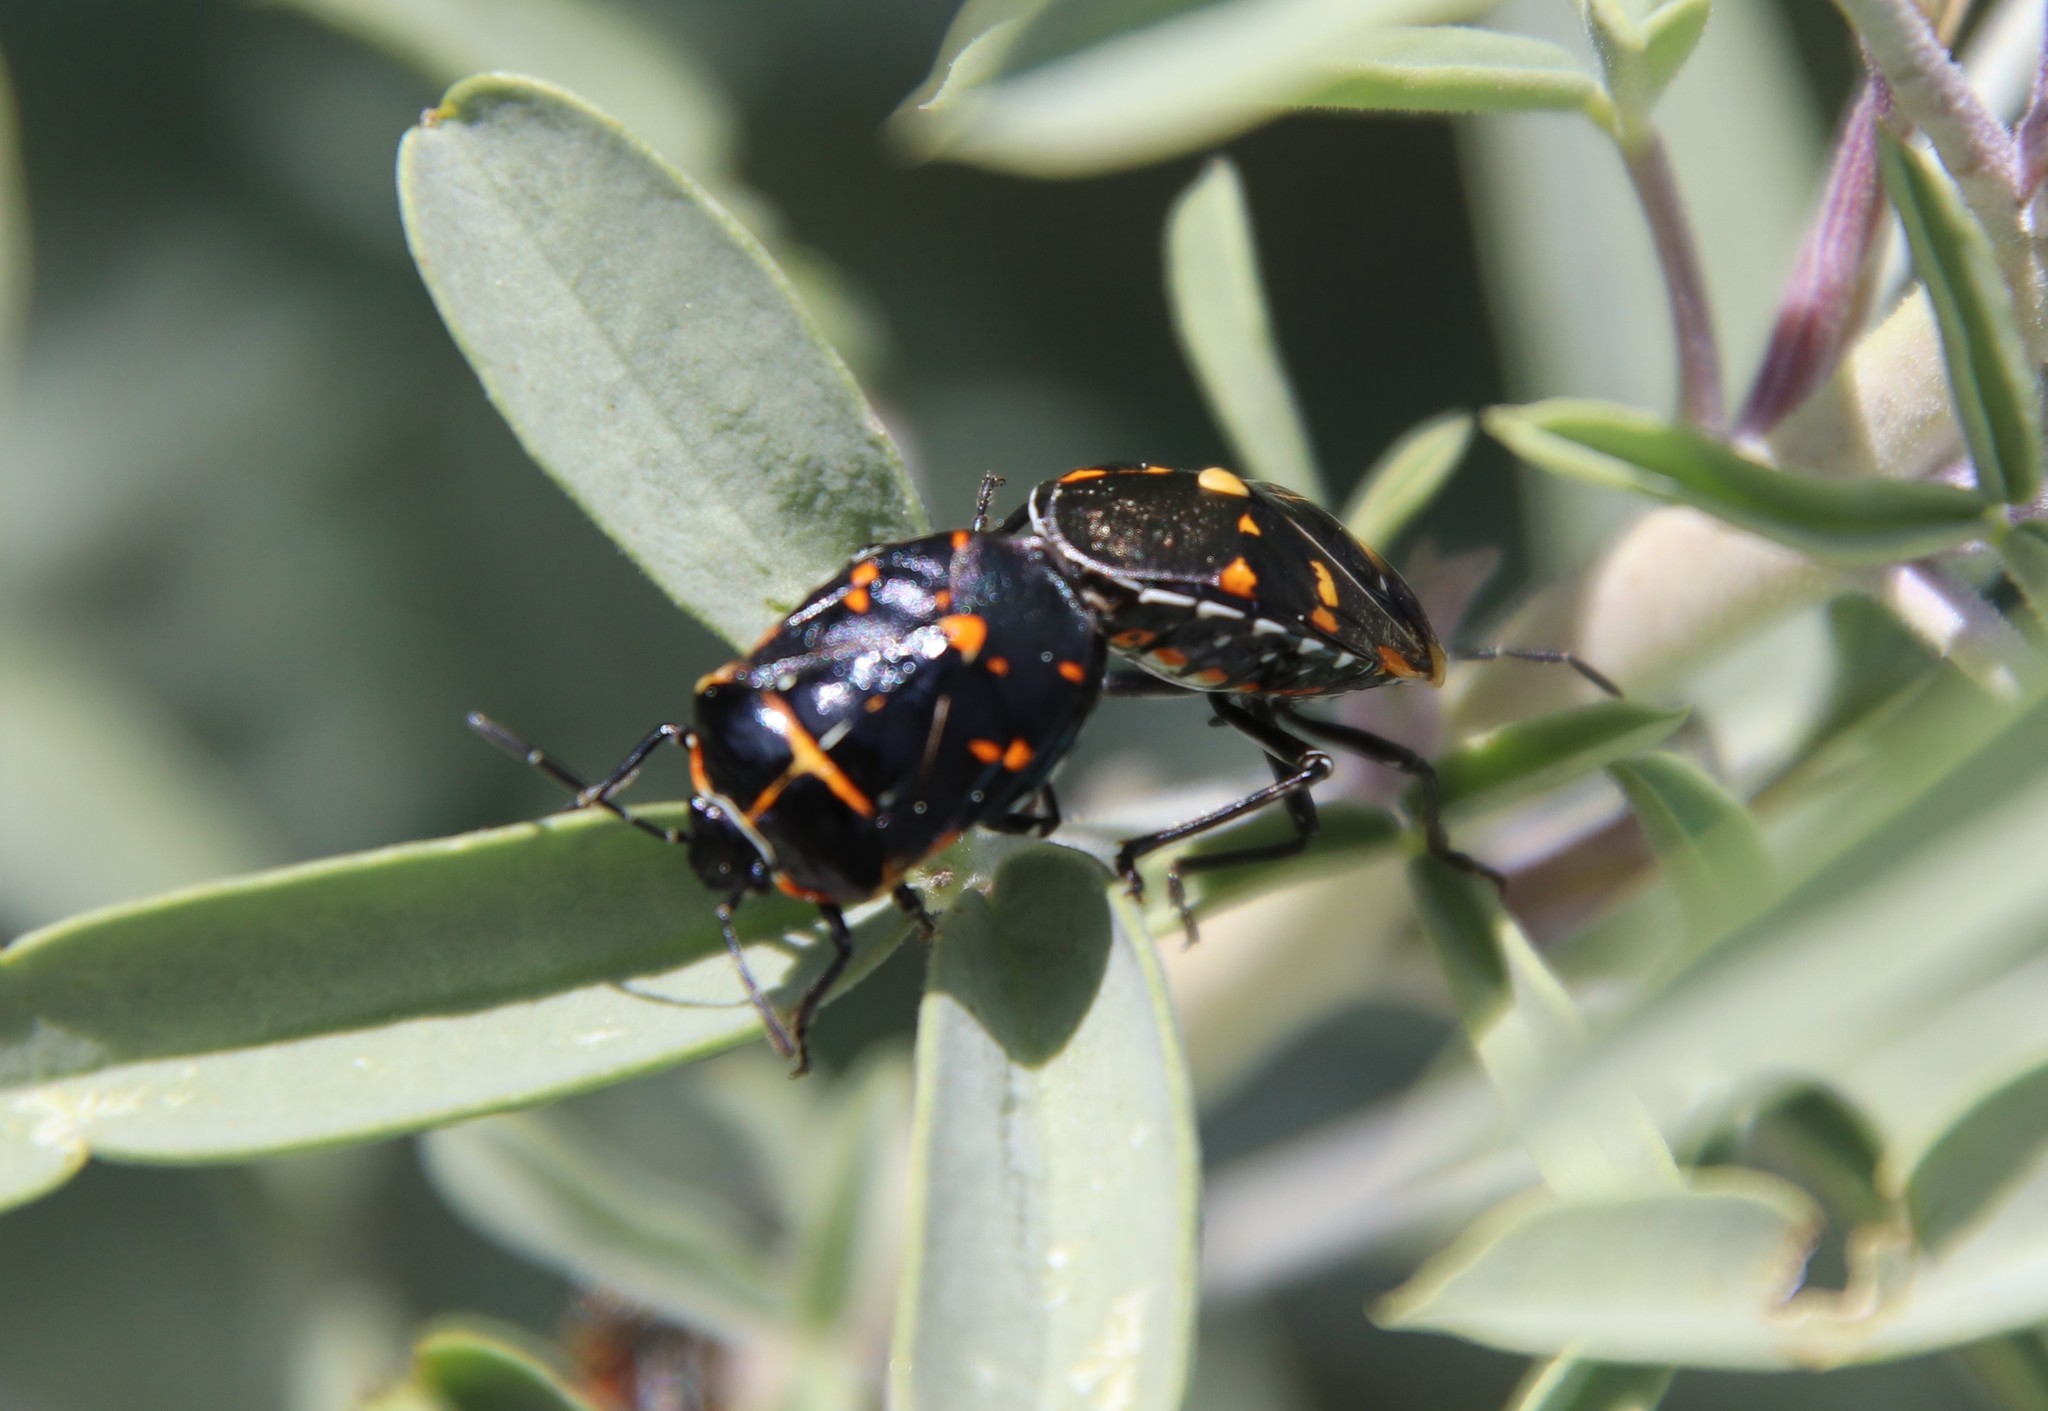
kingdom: Animalia
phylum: Arthropoda
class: Insecta
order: Hemiptera
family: Pentatomidae
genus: Murgantia
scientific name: Murgantia histrionica
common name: Harlequin bug
